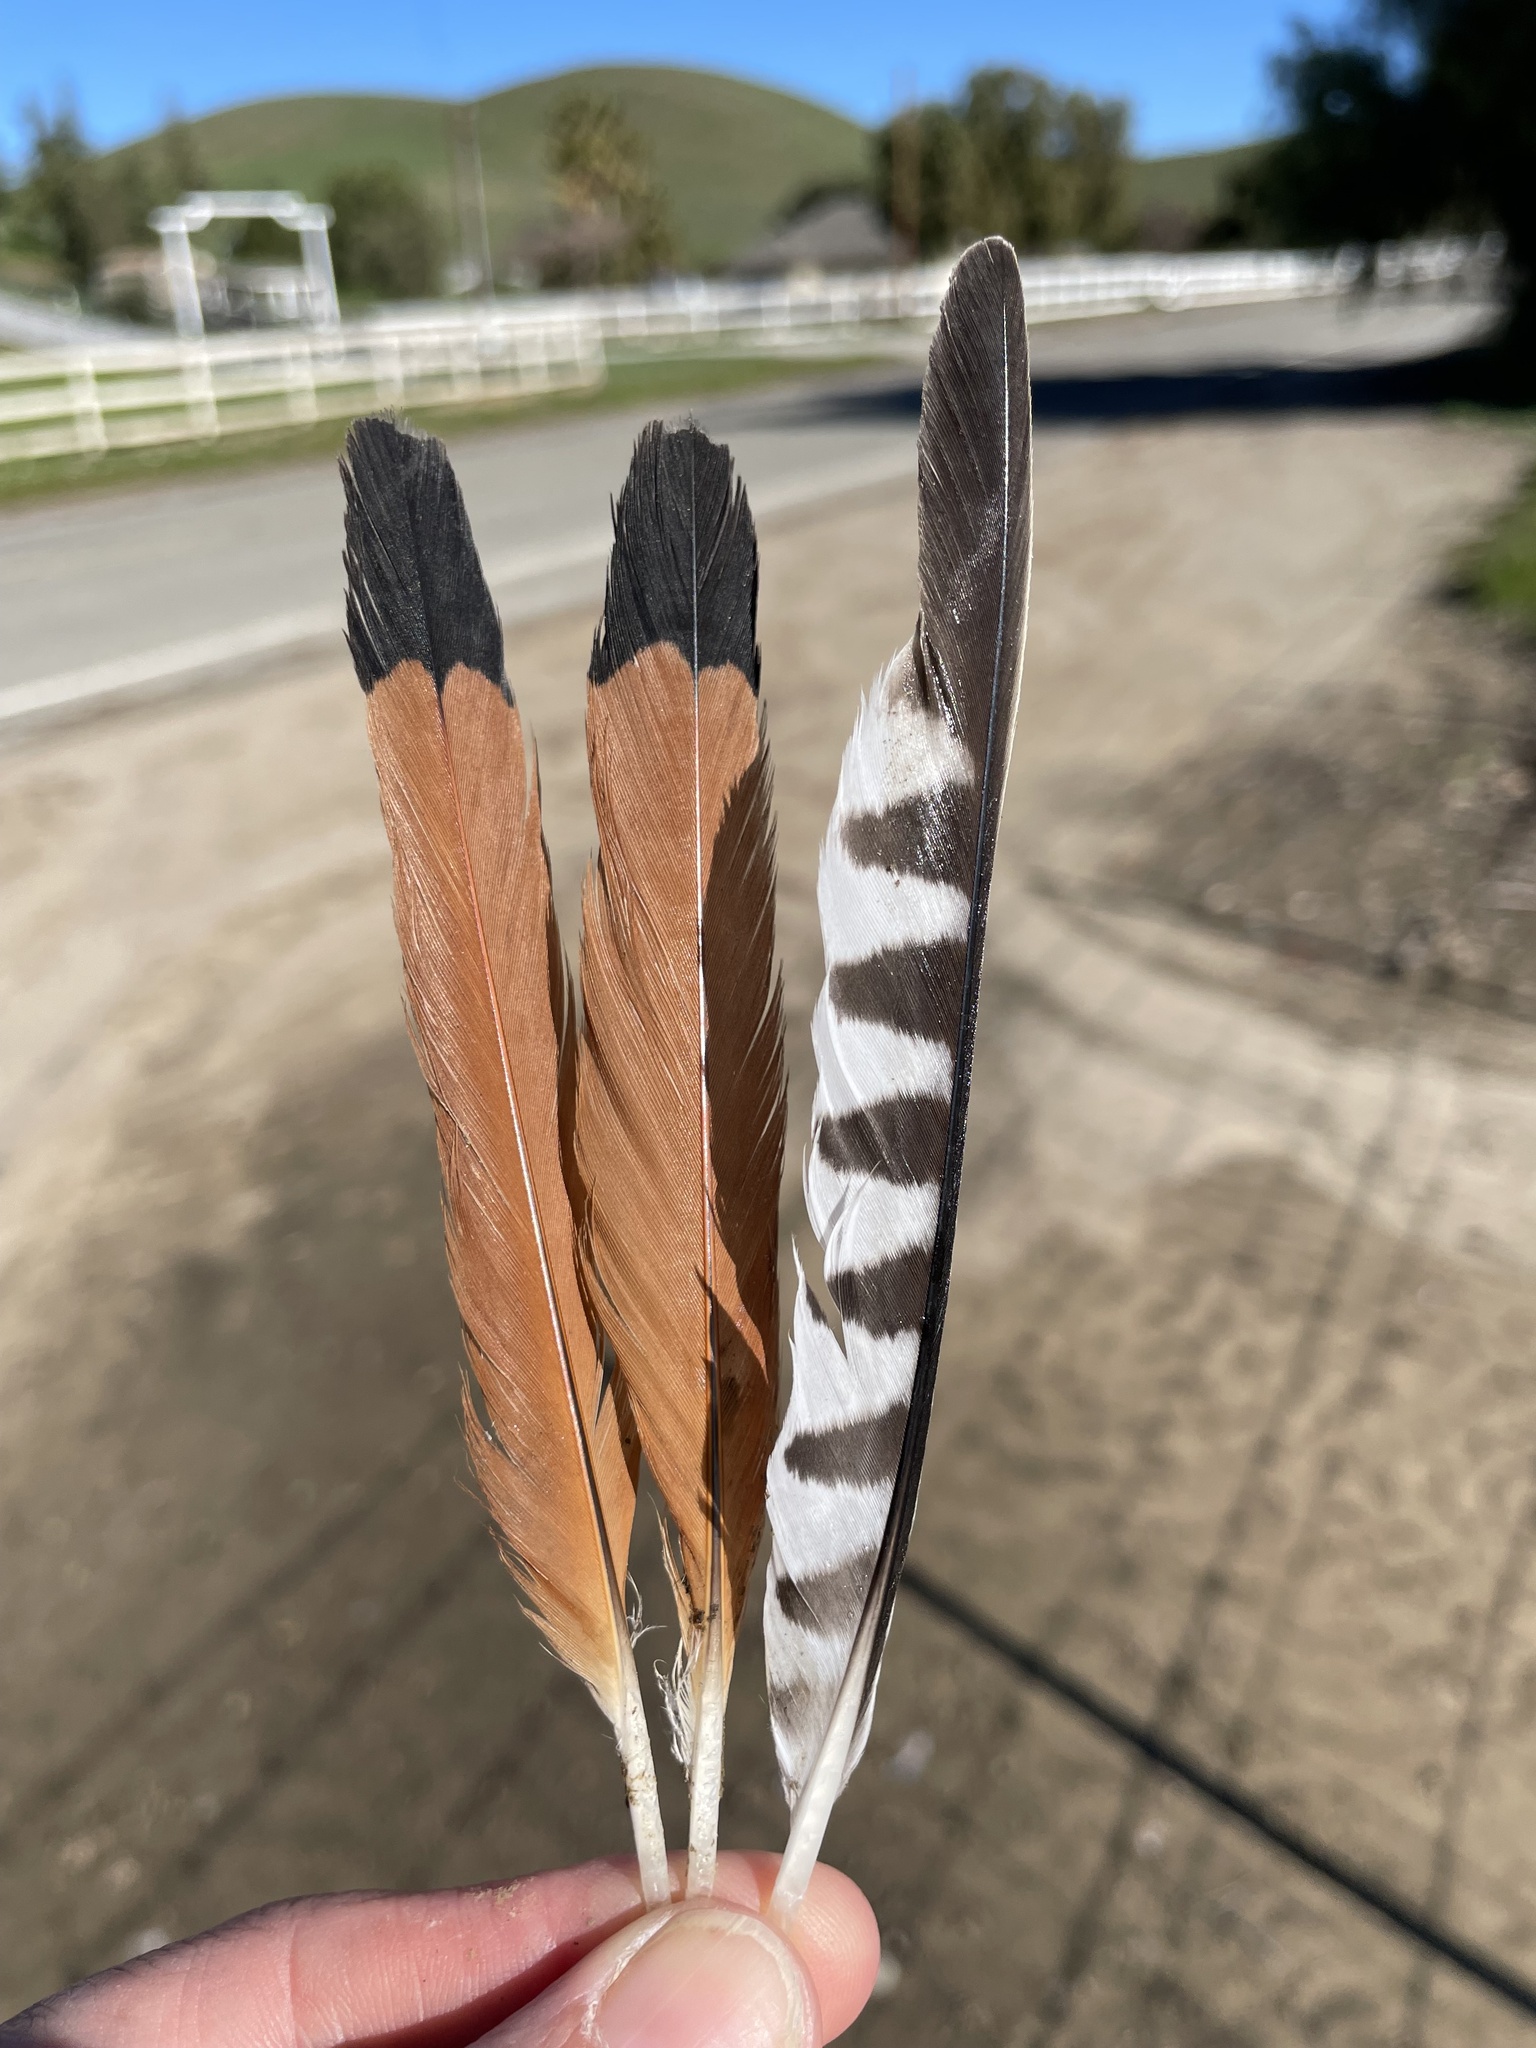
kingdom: Animalia
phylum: Chordata
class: Aves
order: Falconiformes
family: Falconidae
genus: Falco
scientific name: Falco sparverius
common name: American kestrel
